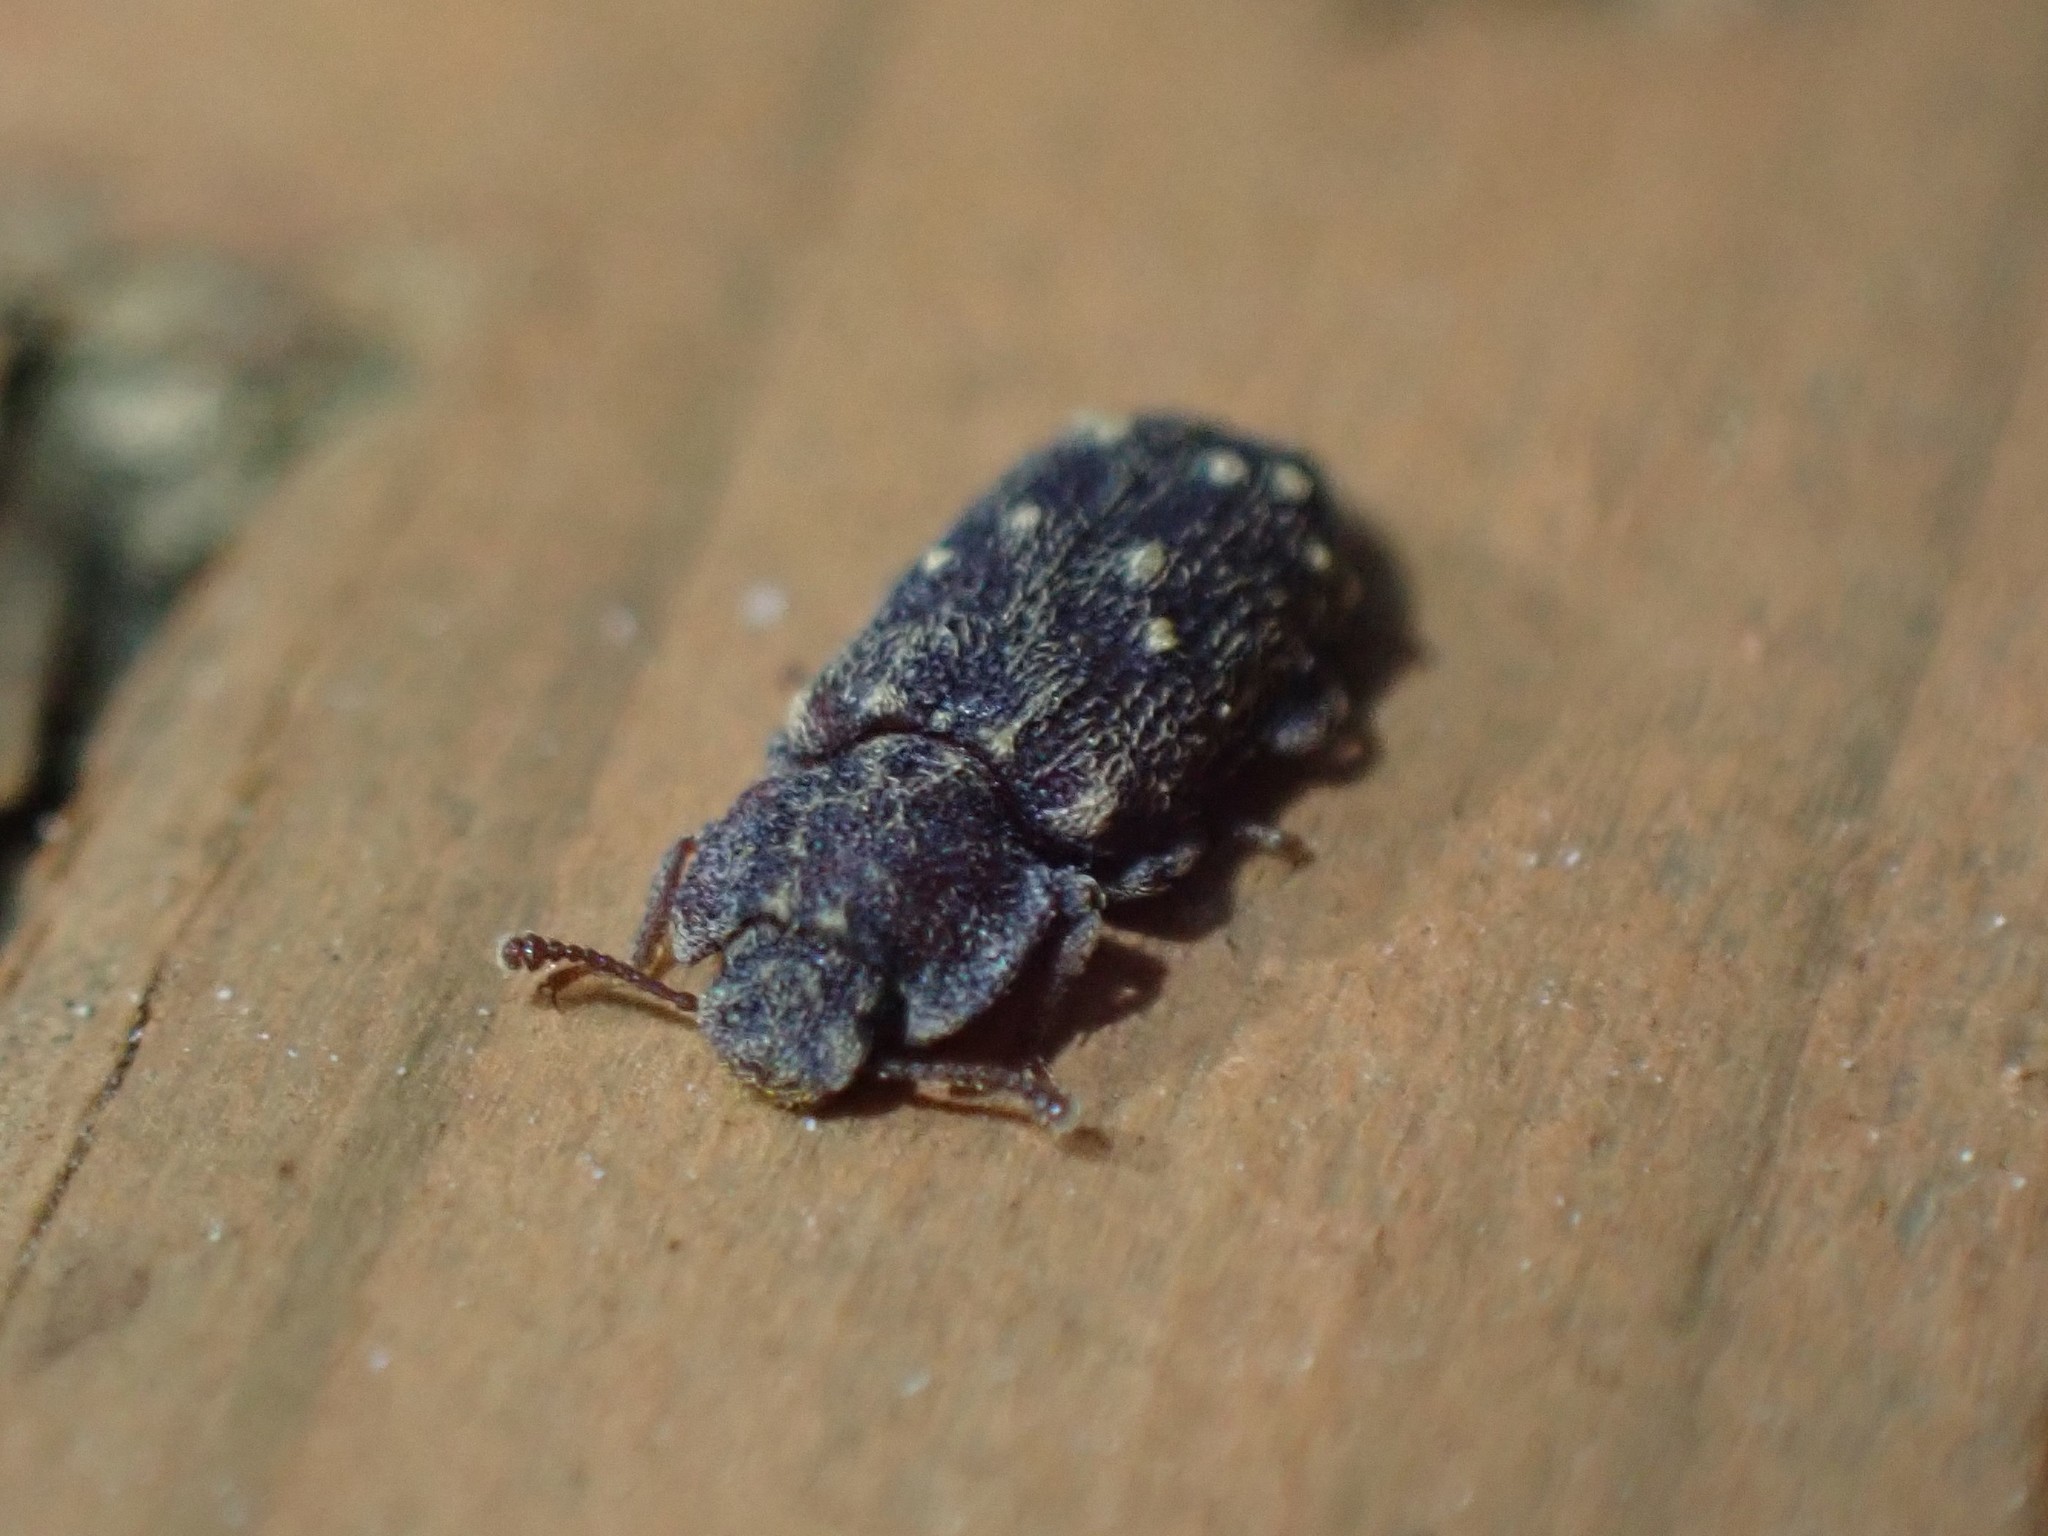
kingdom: Animalia
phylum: Arthropoda
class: Insecta
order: Coleoptera
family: Zopheridae
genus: Namunaria
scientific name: Namunaria pacifica
